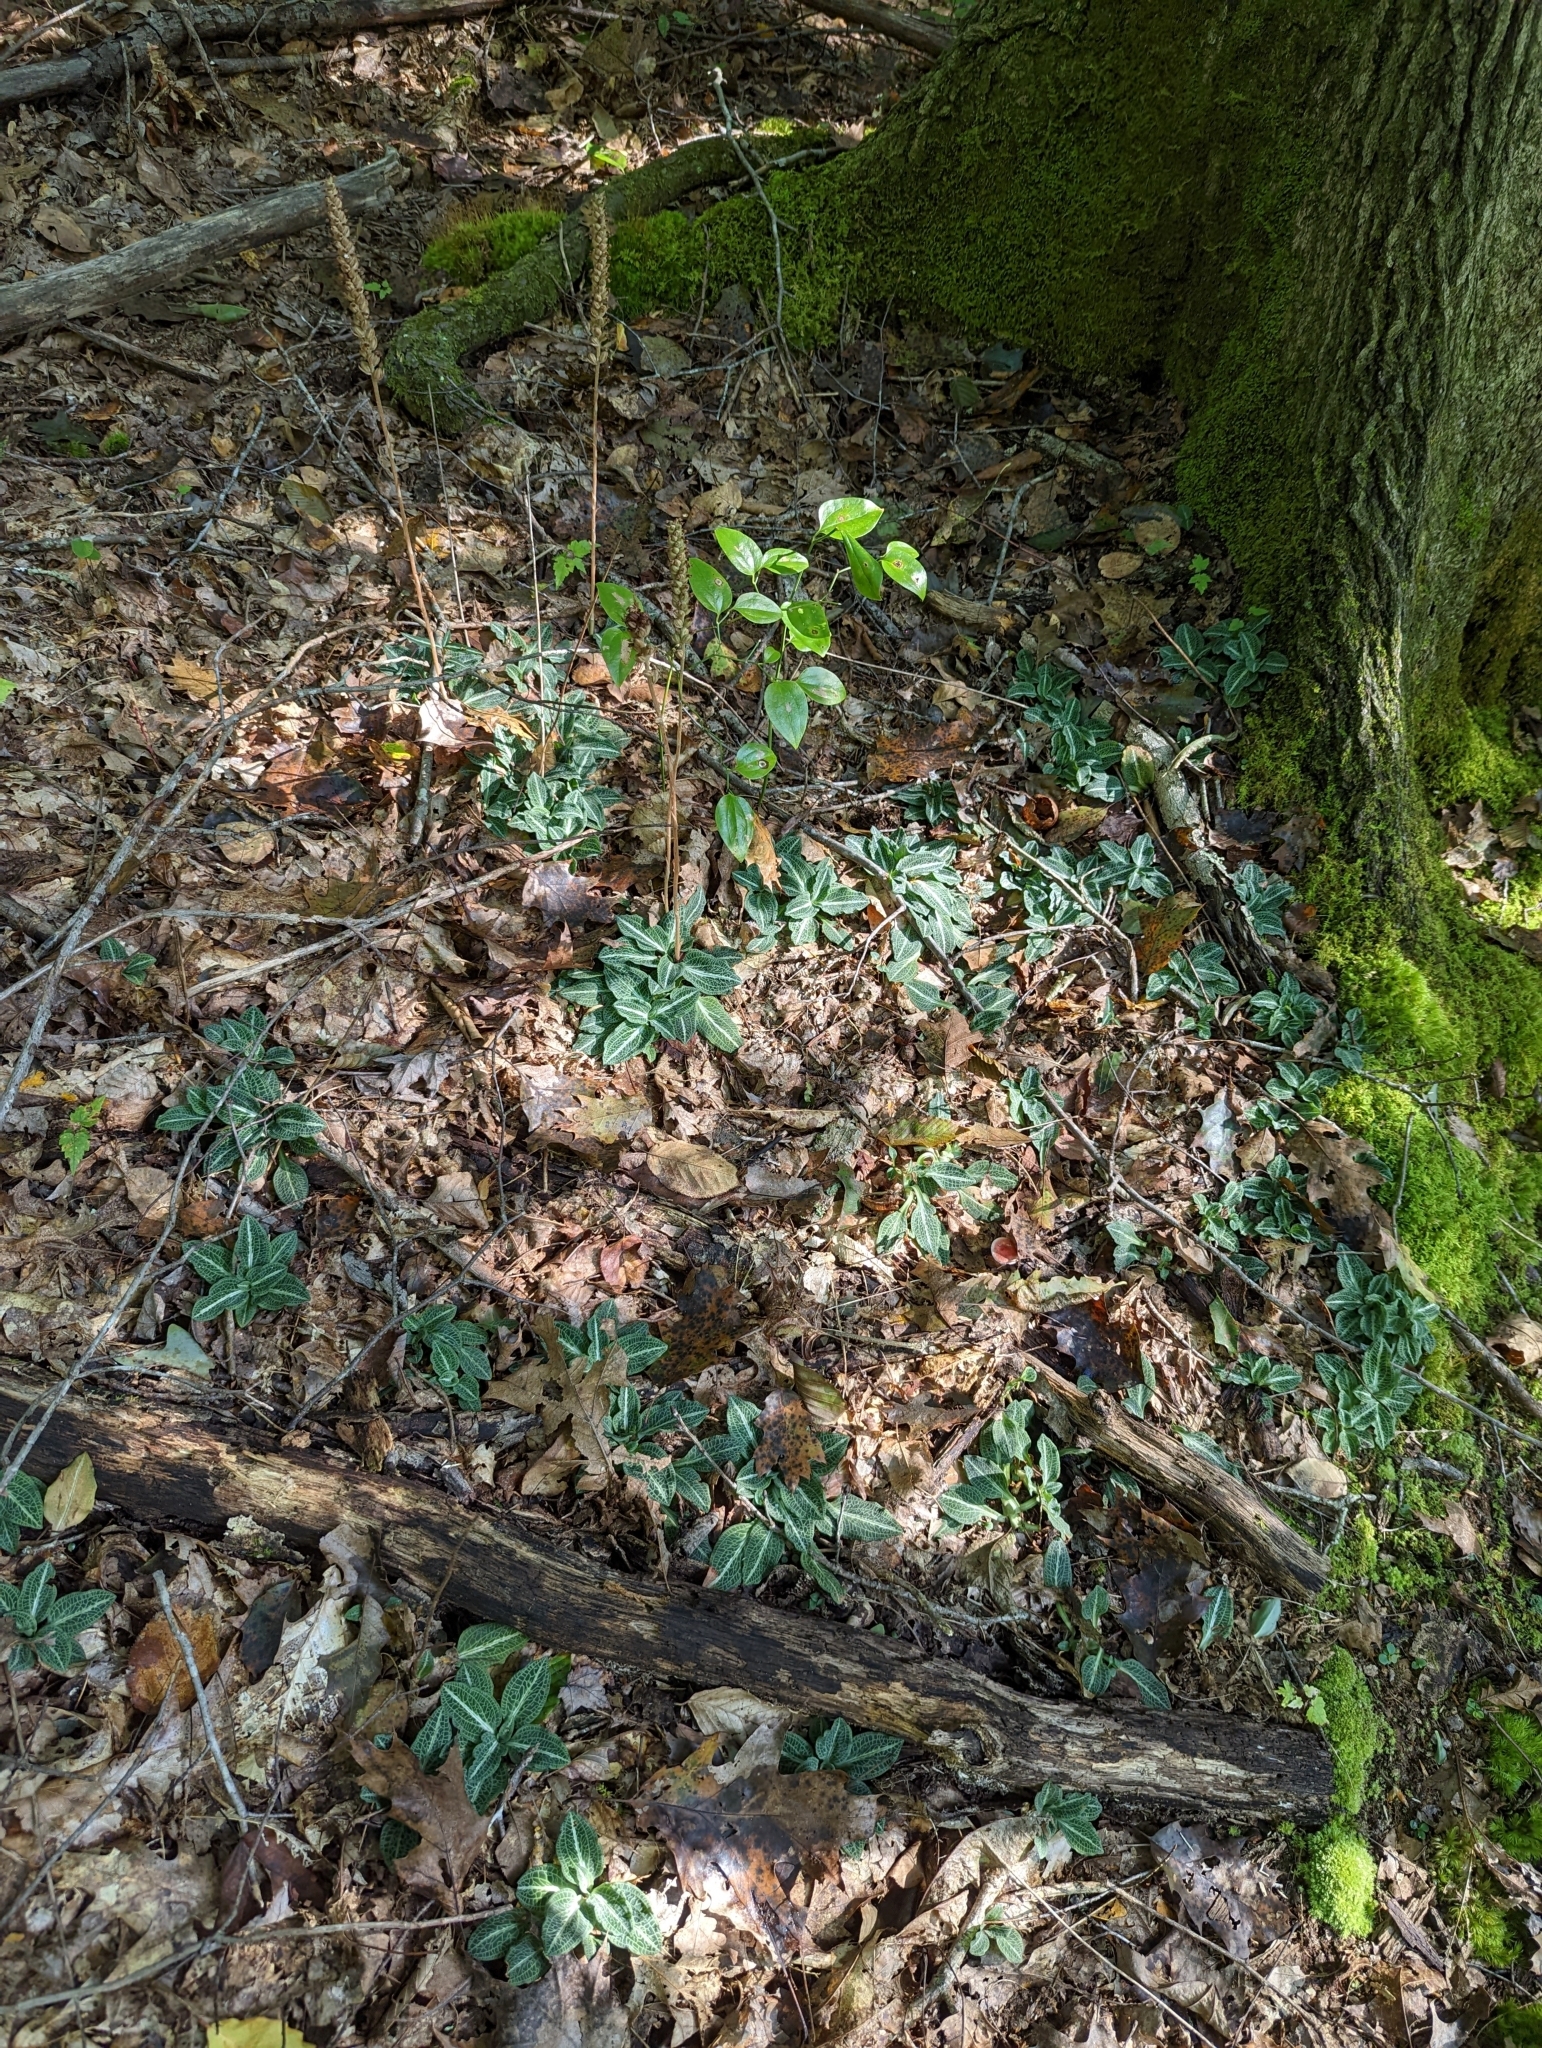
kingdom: Plantae
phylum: Tracheophyta
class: Liliopsida
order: Asparagales
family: Orchidaceae
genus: Goodyera
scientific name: Goodyera pubescens
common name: Downy rattlesnake-plantain
